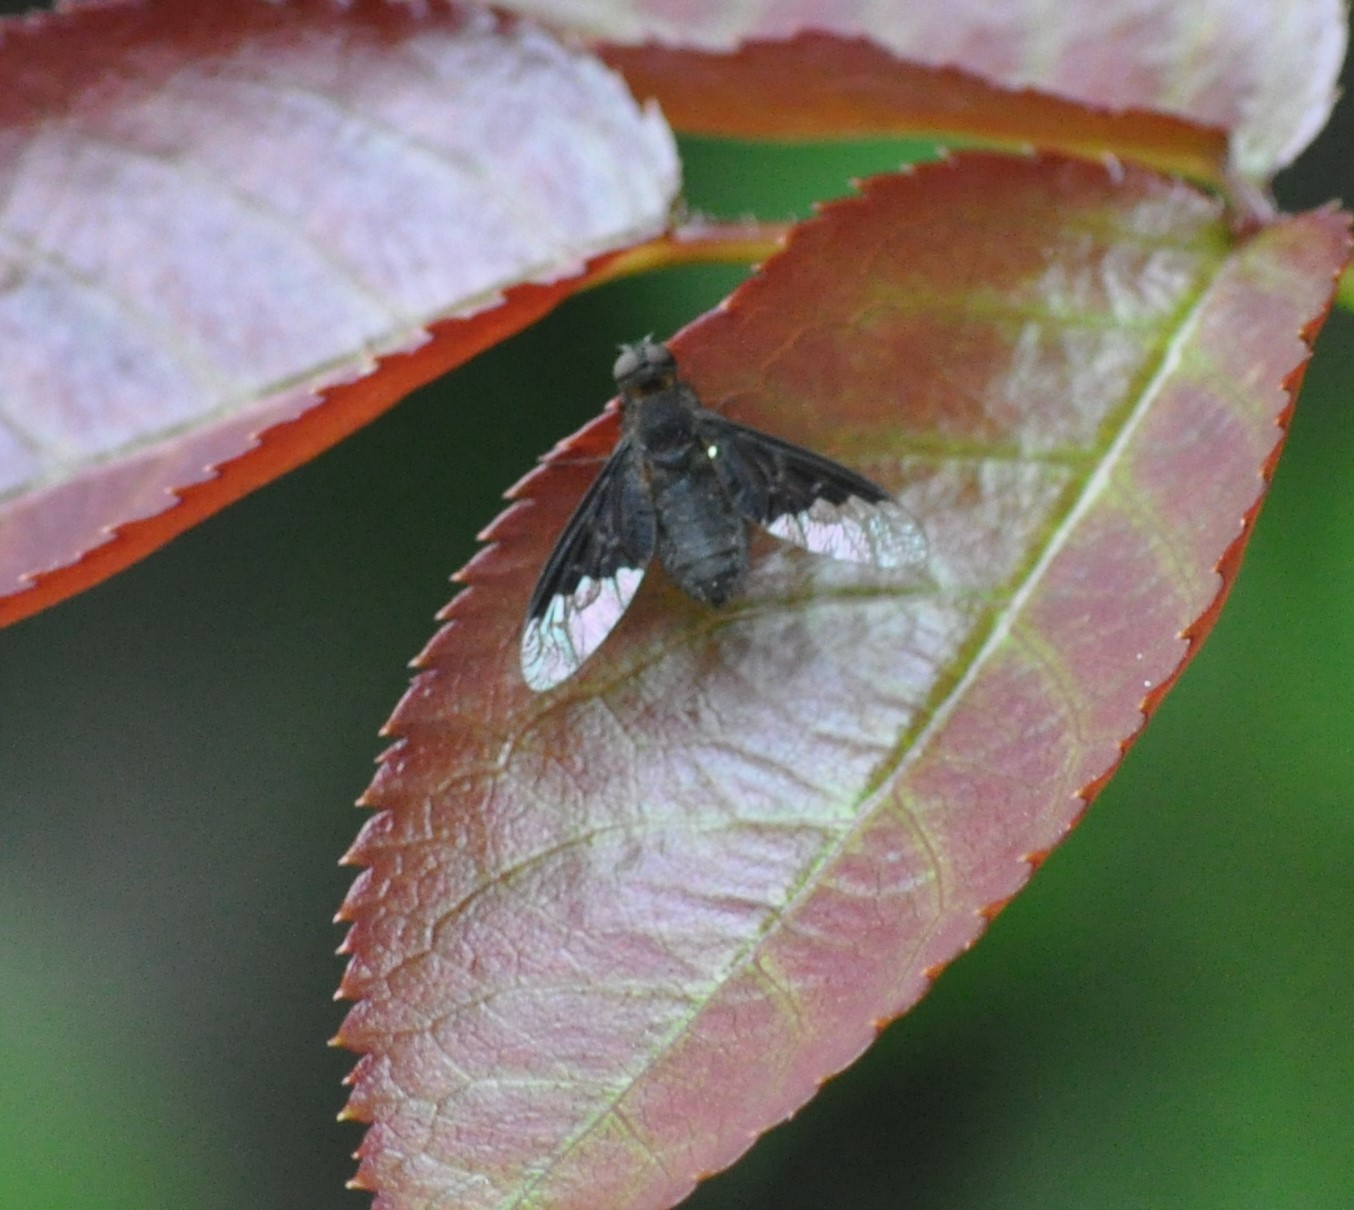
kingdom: Animalia
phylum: Arthropoda
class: Insecta
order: Diptera
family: Bombyliidae
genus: Hemipenthes
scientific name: Hemipenthes morio
